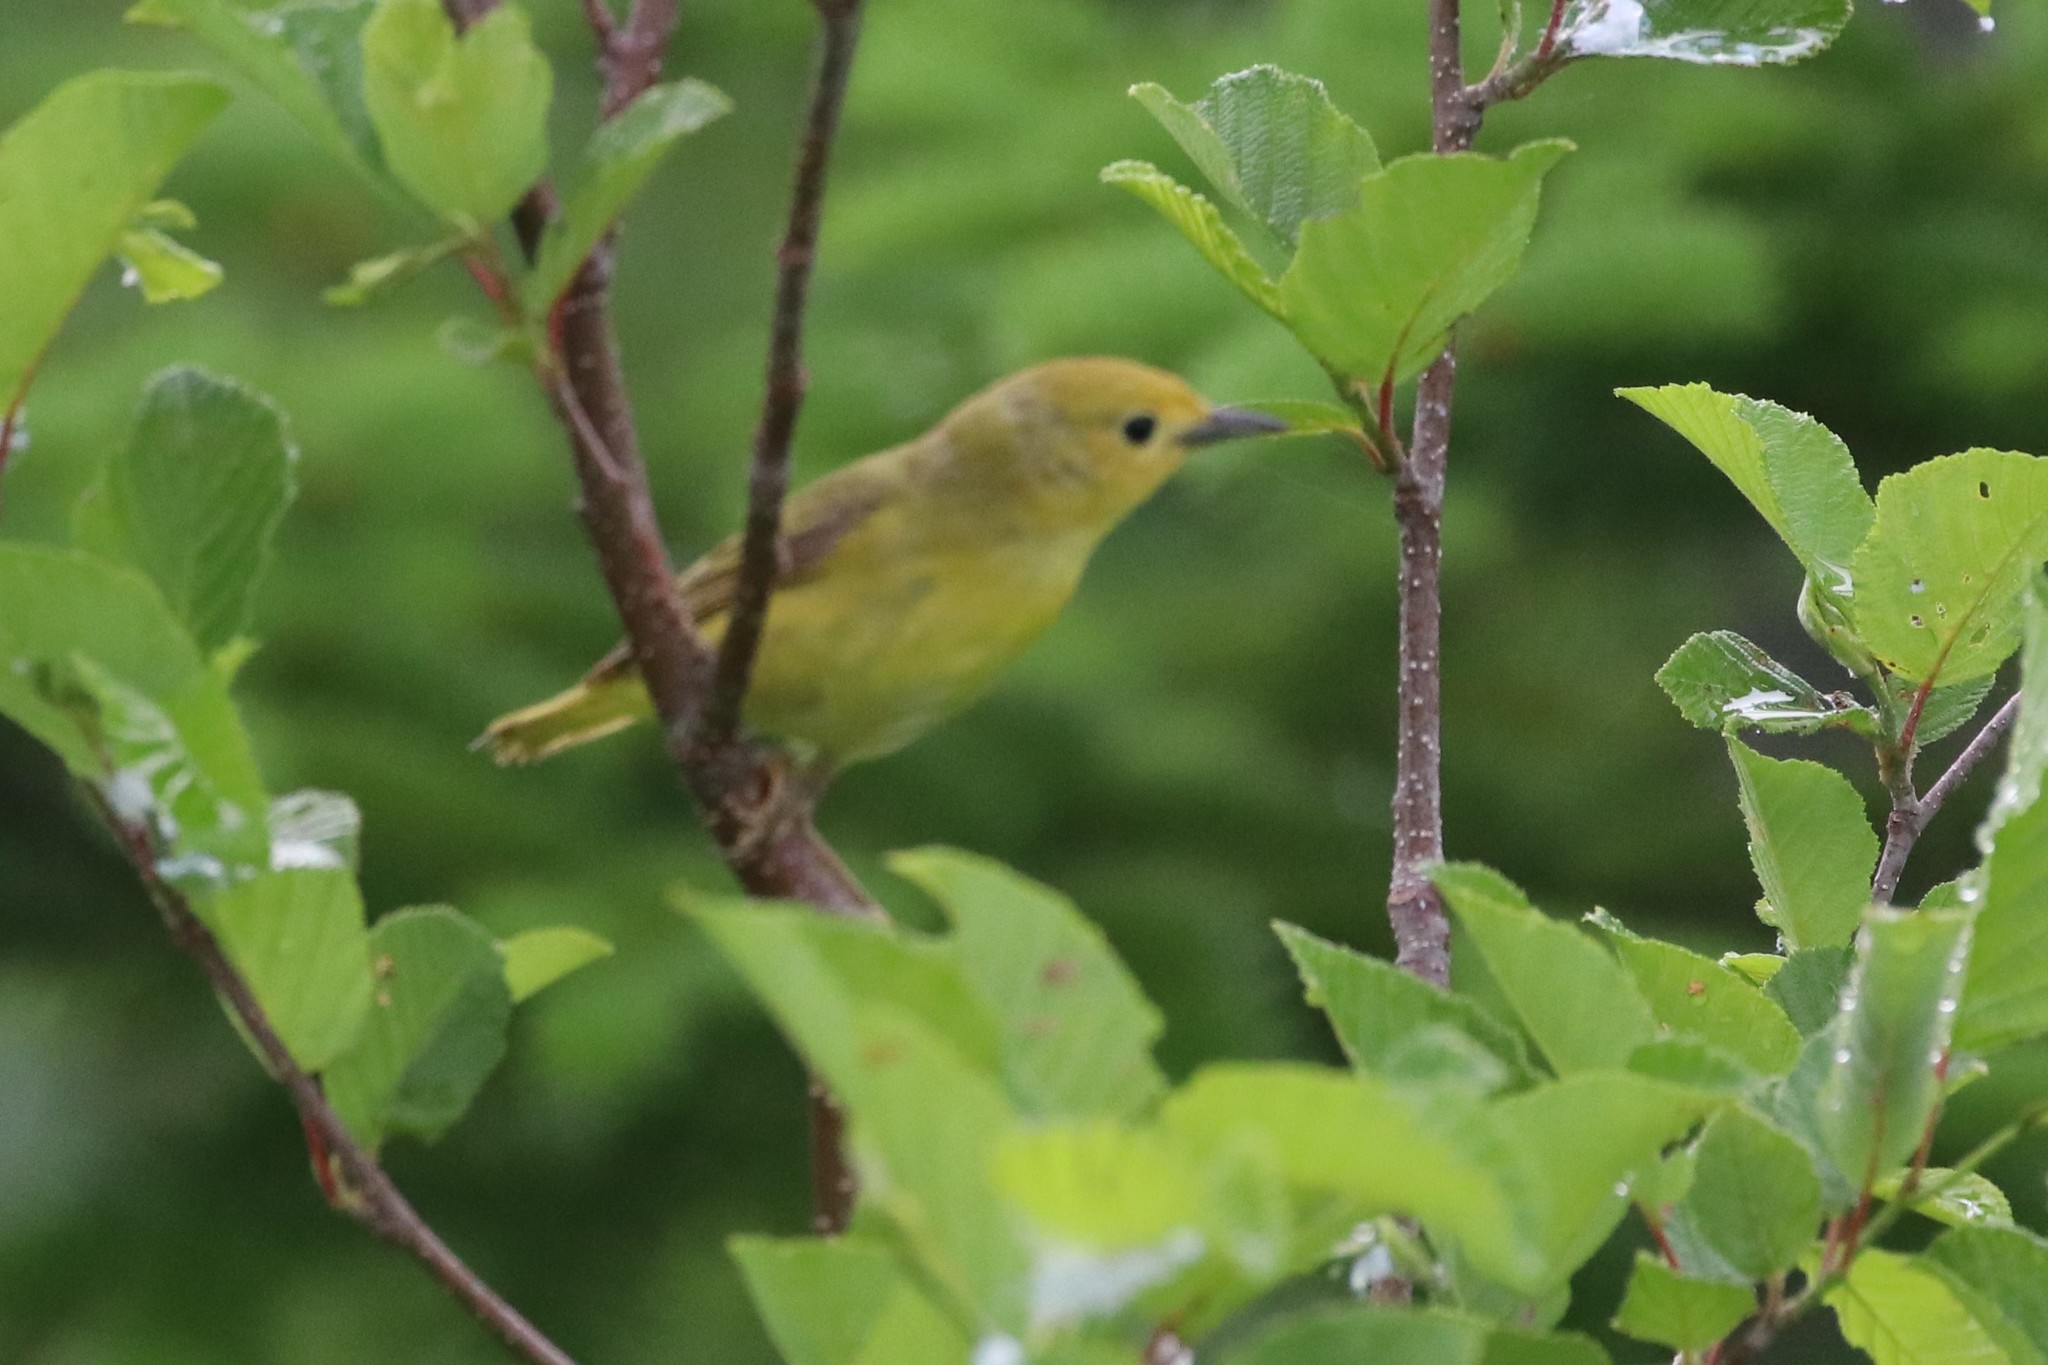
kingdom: Animalia
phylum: Chordata
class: Aves
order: Passeriformes
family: Parulidae
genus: Setophaga
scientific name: Setophaga petechia
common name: Yellow warbler
